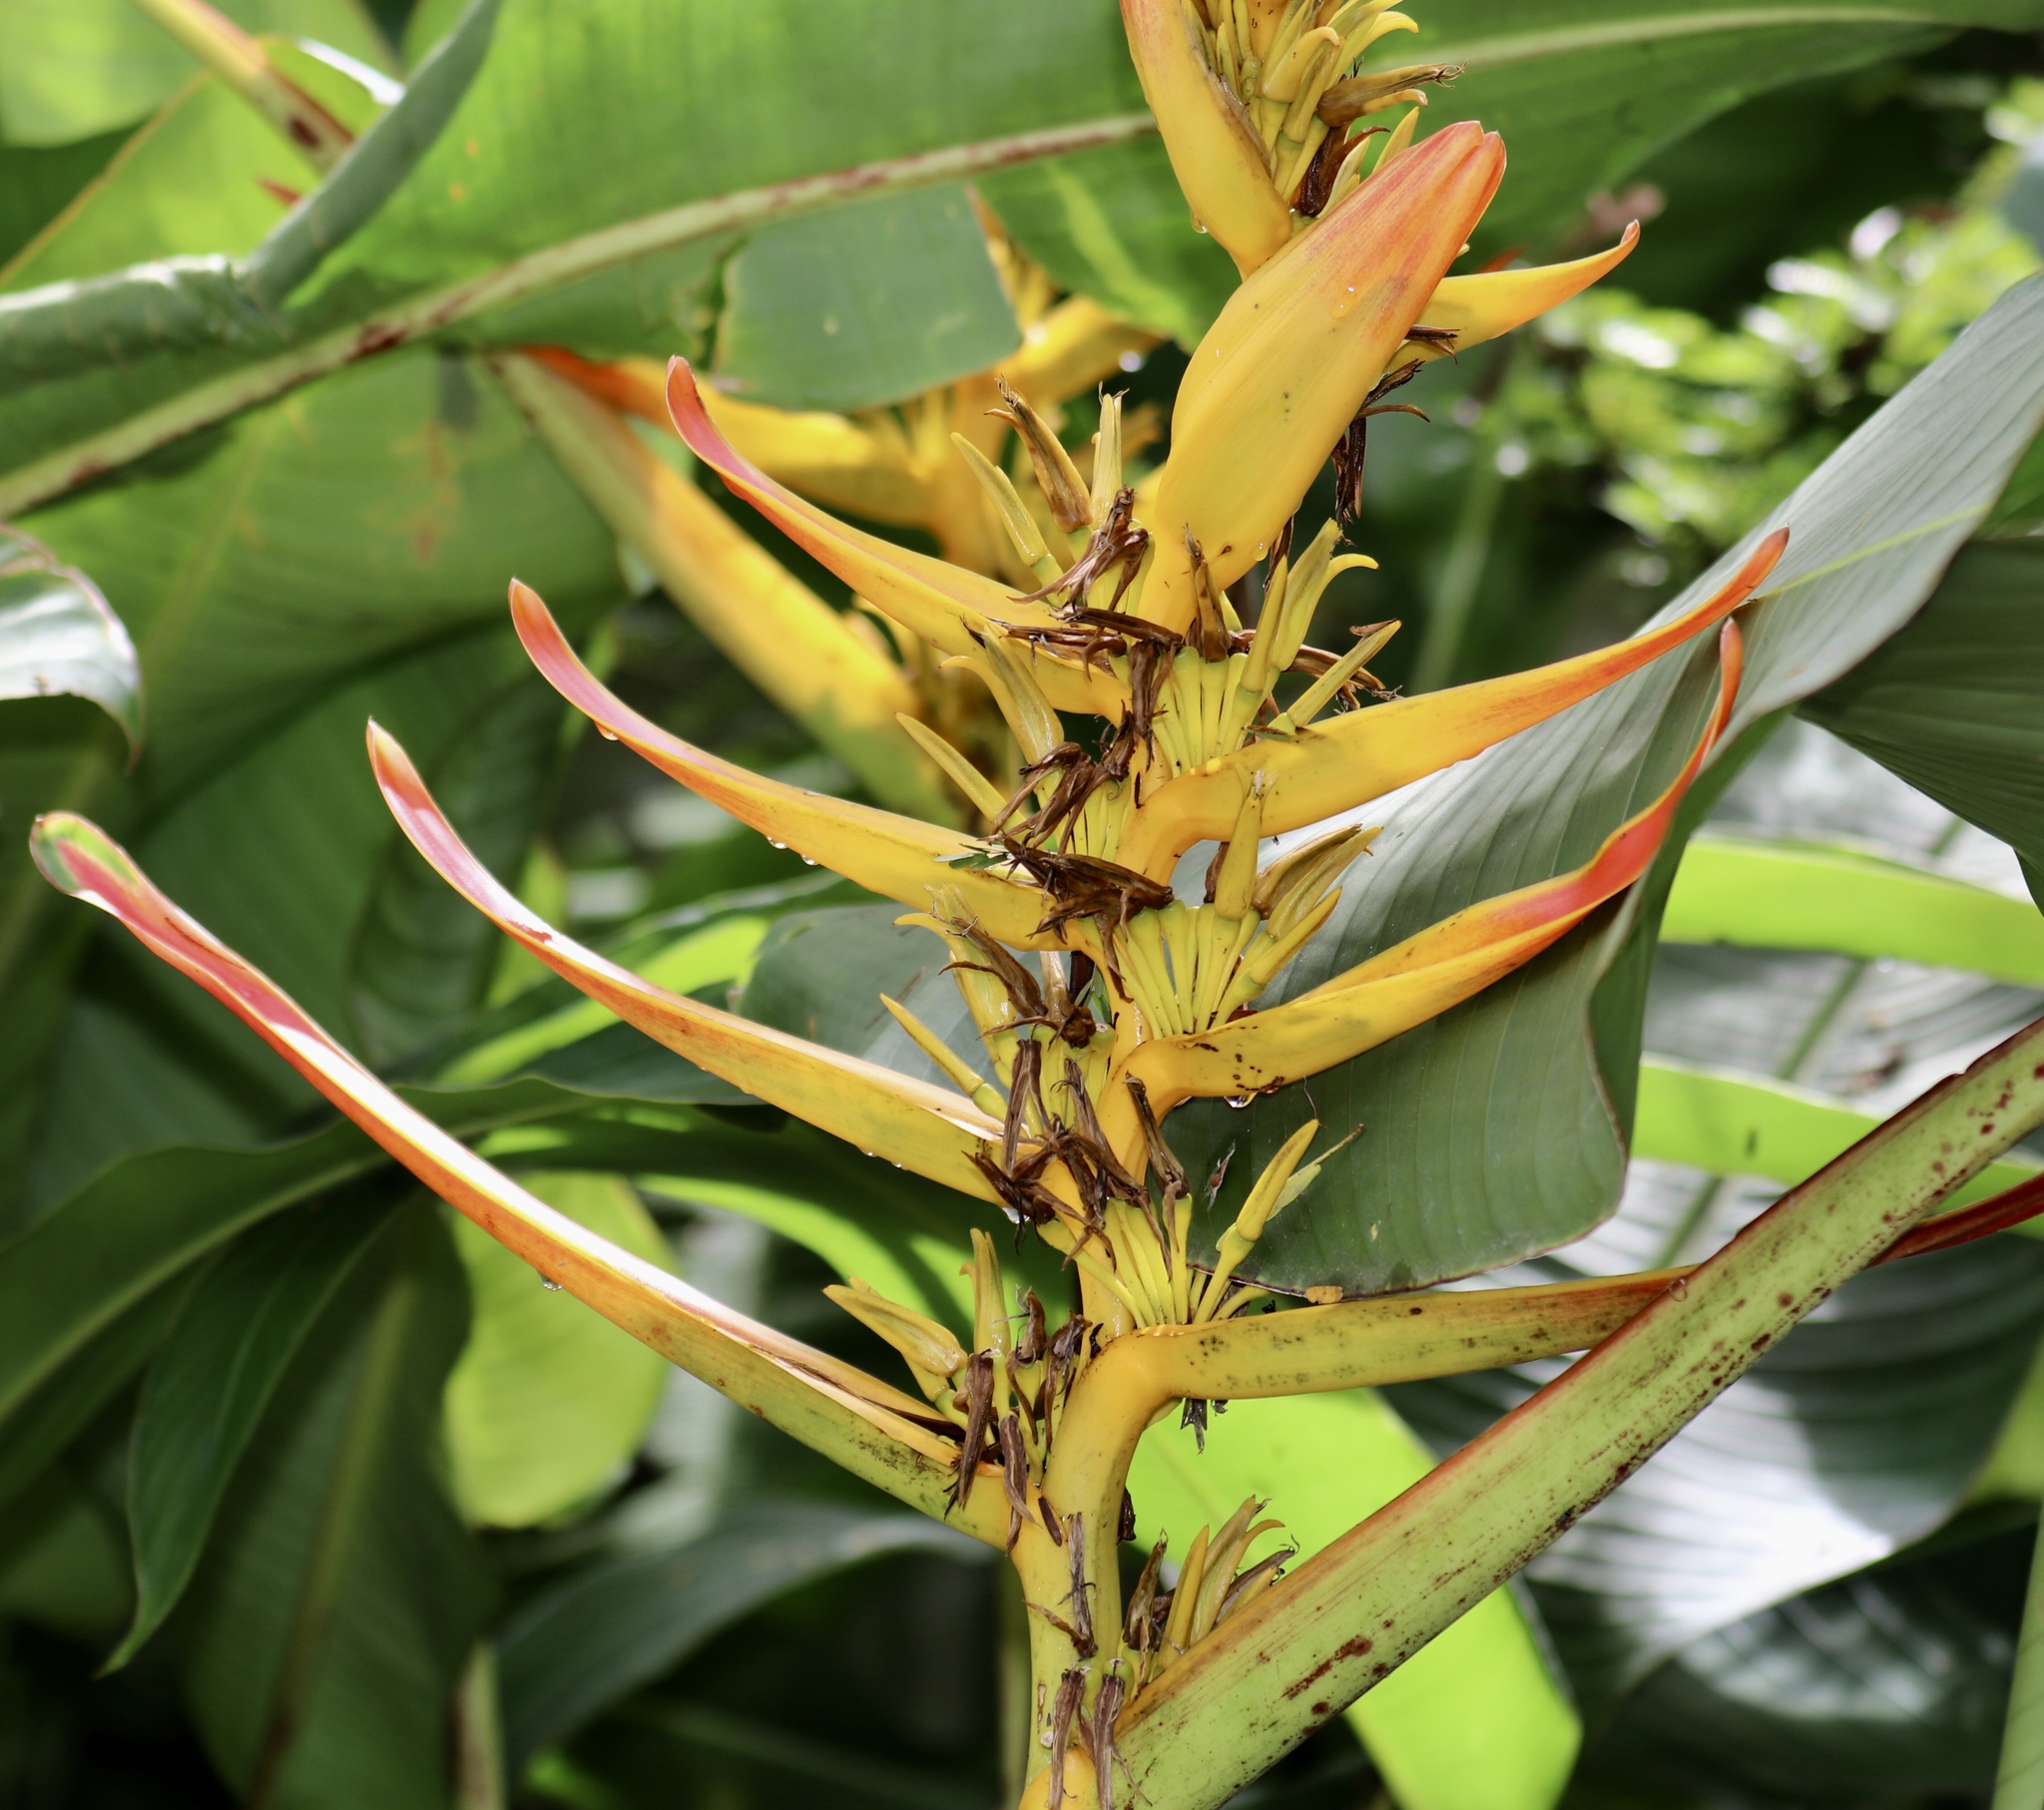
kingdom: Plantae
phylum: Tracheophyta
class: Liliopsida
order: Zingiberales
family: Heliconiaceae
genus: Heliconia
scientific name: Heliconia lingulata
